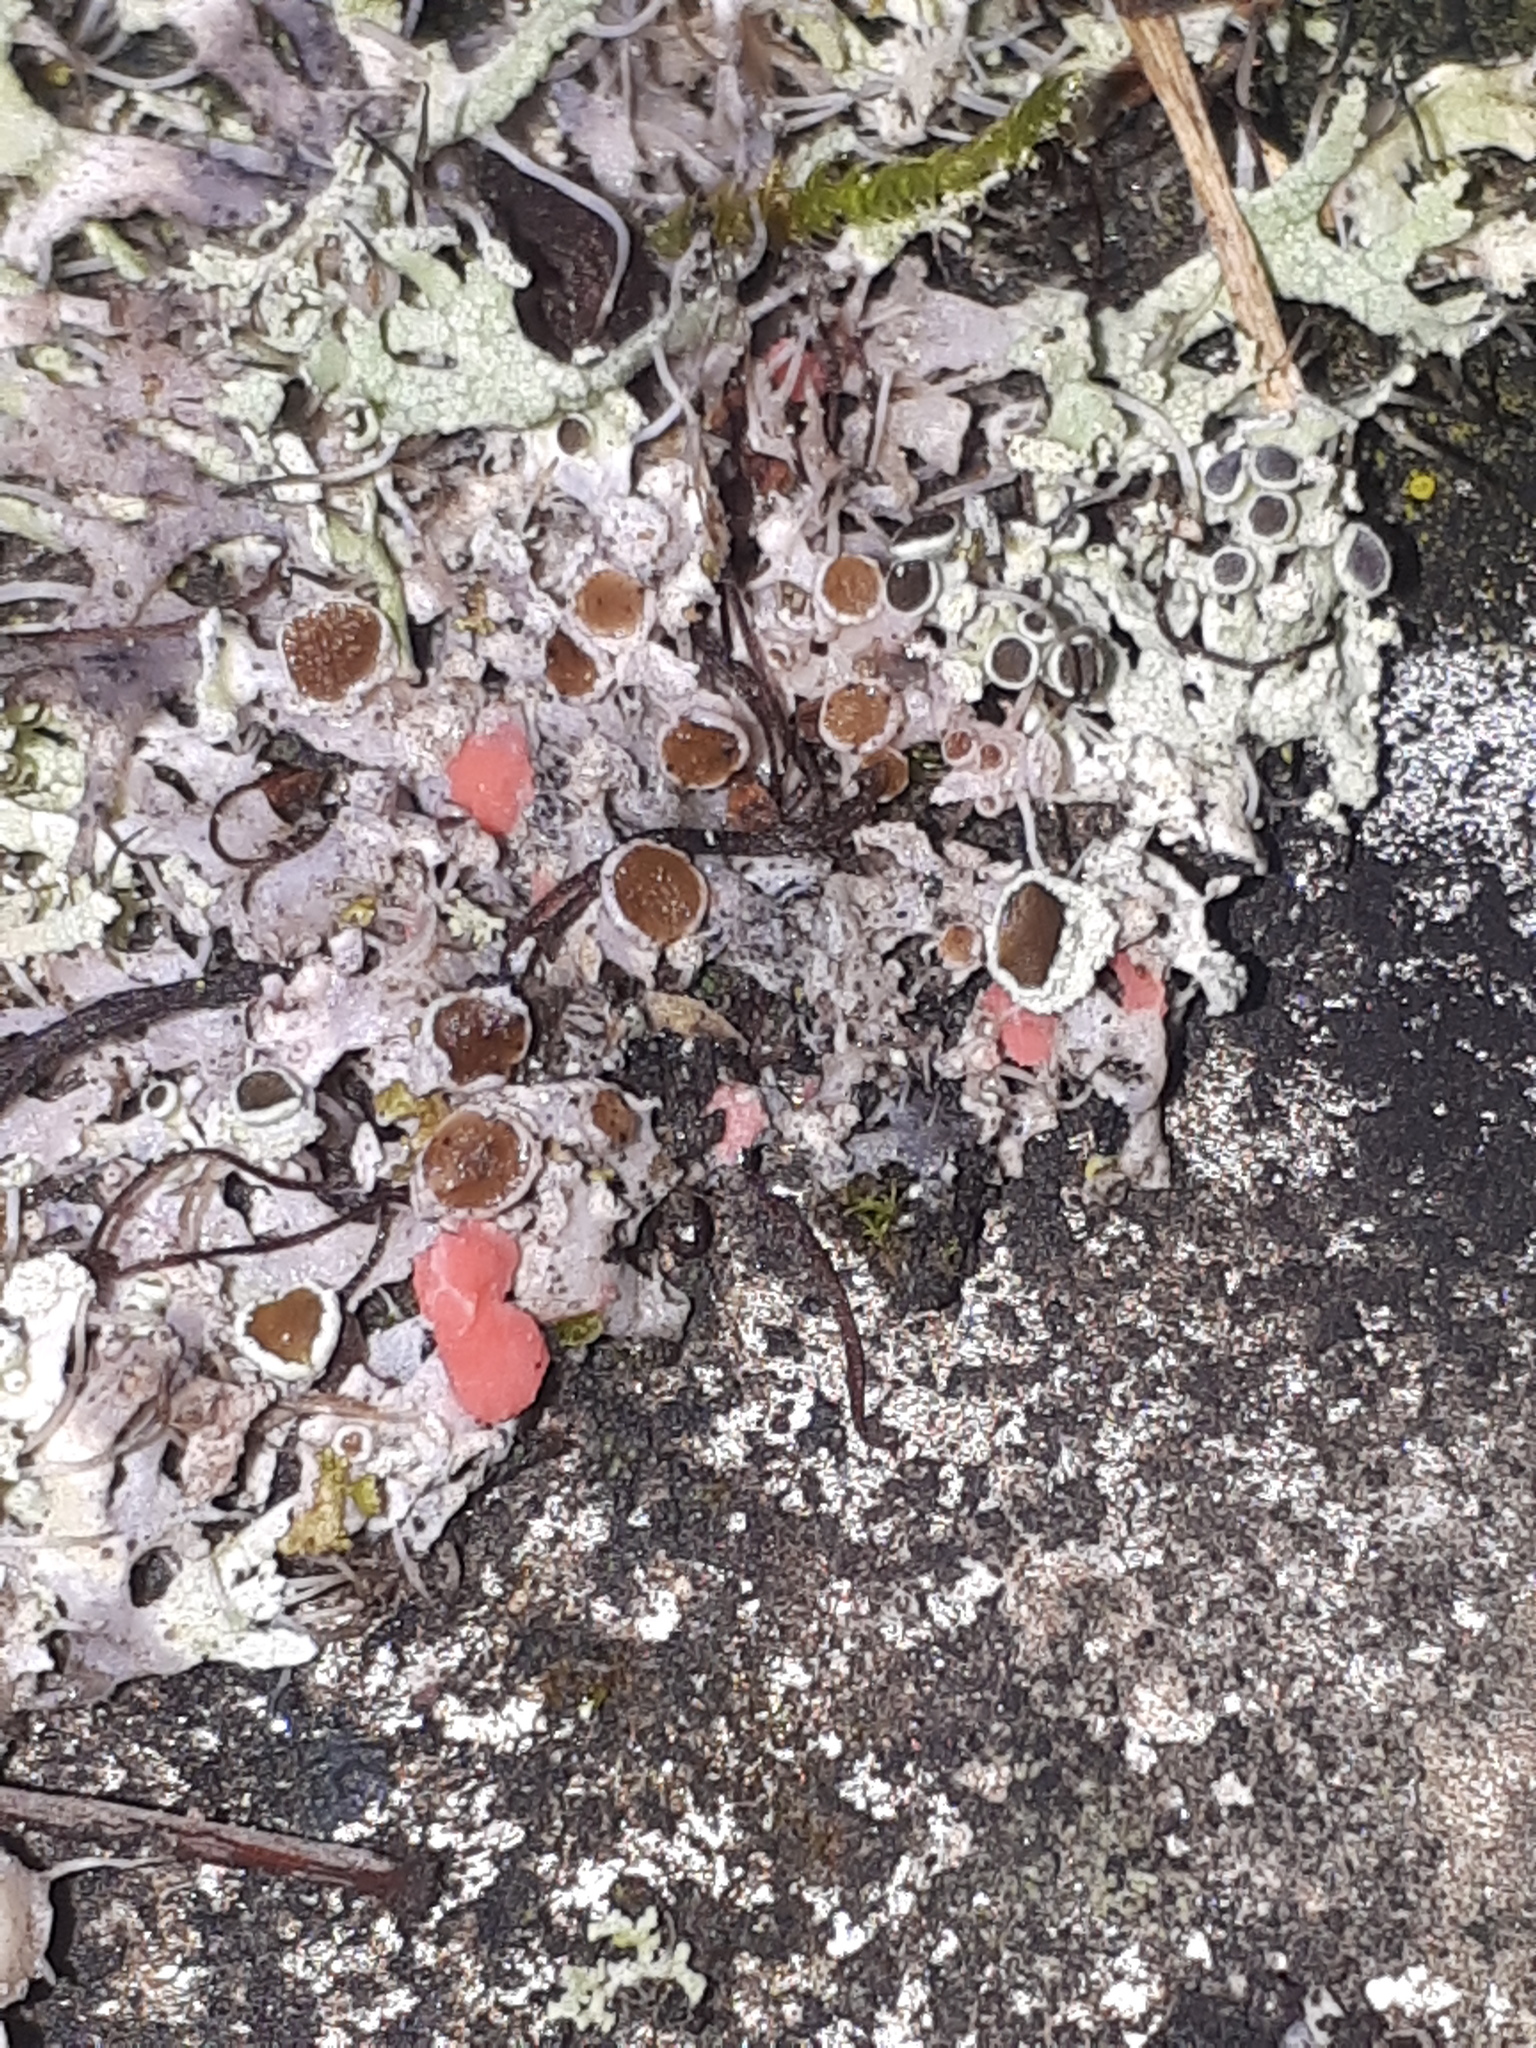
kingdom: Fungi
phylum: Ascomycota
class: Sordariomycetes
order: Hypocreales
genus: Illosporiopsis
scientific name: Illosporiopsis christiansenii
